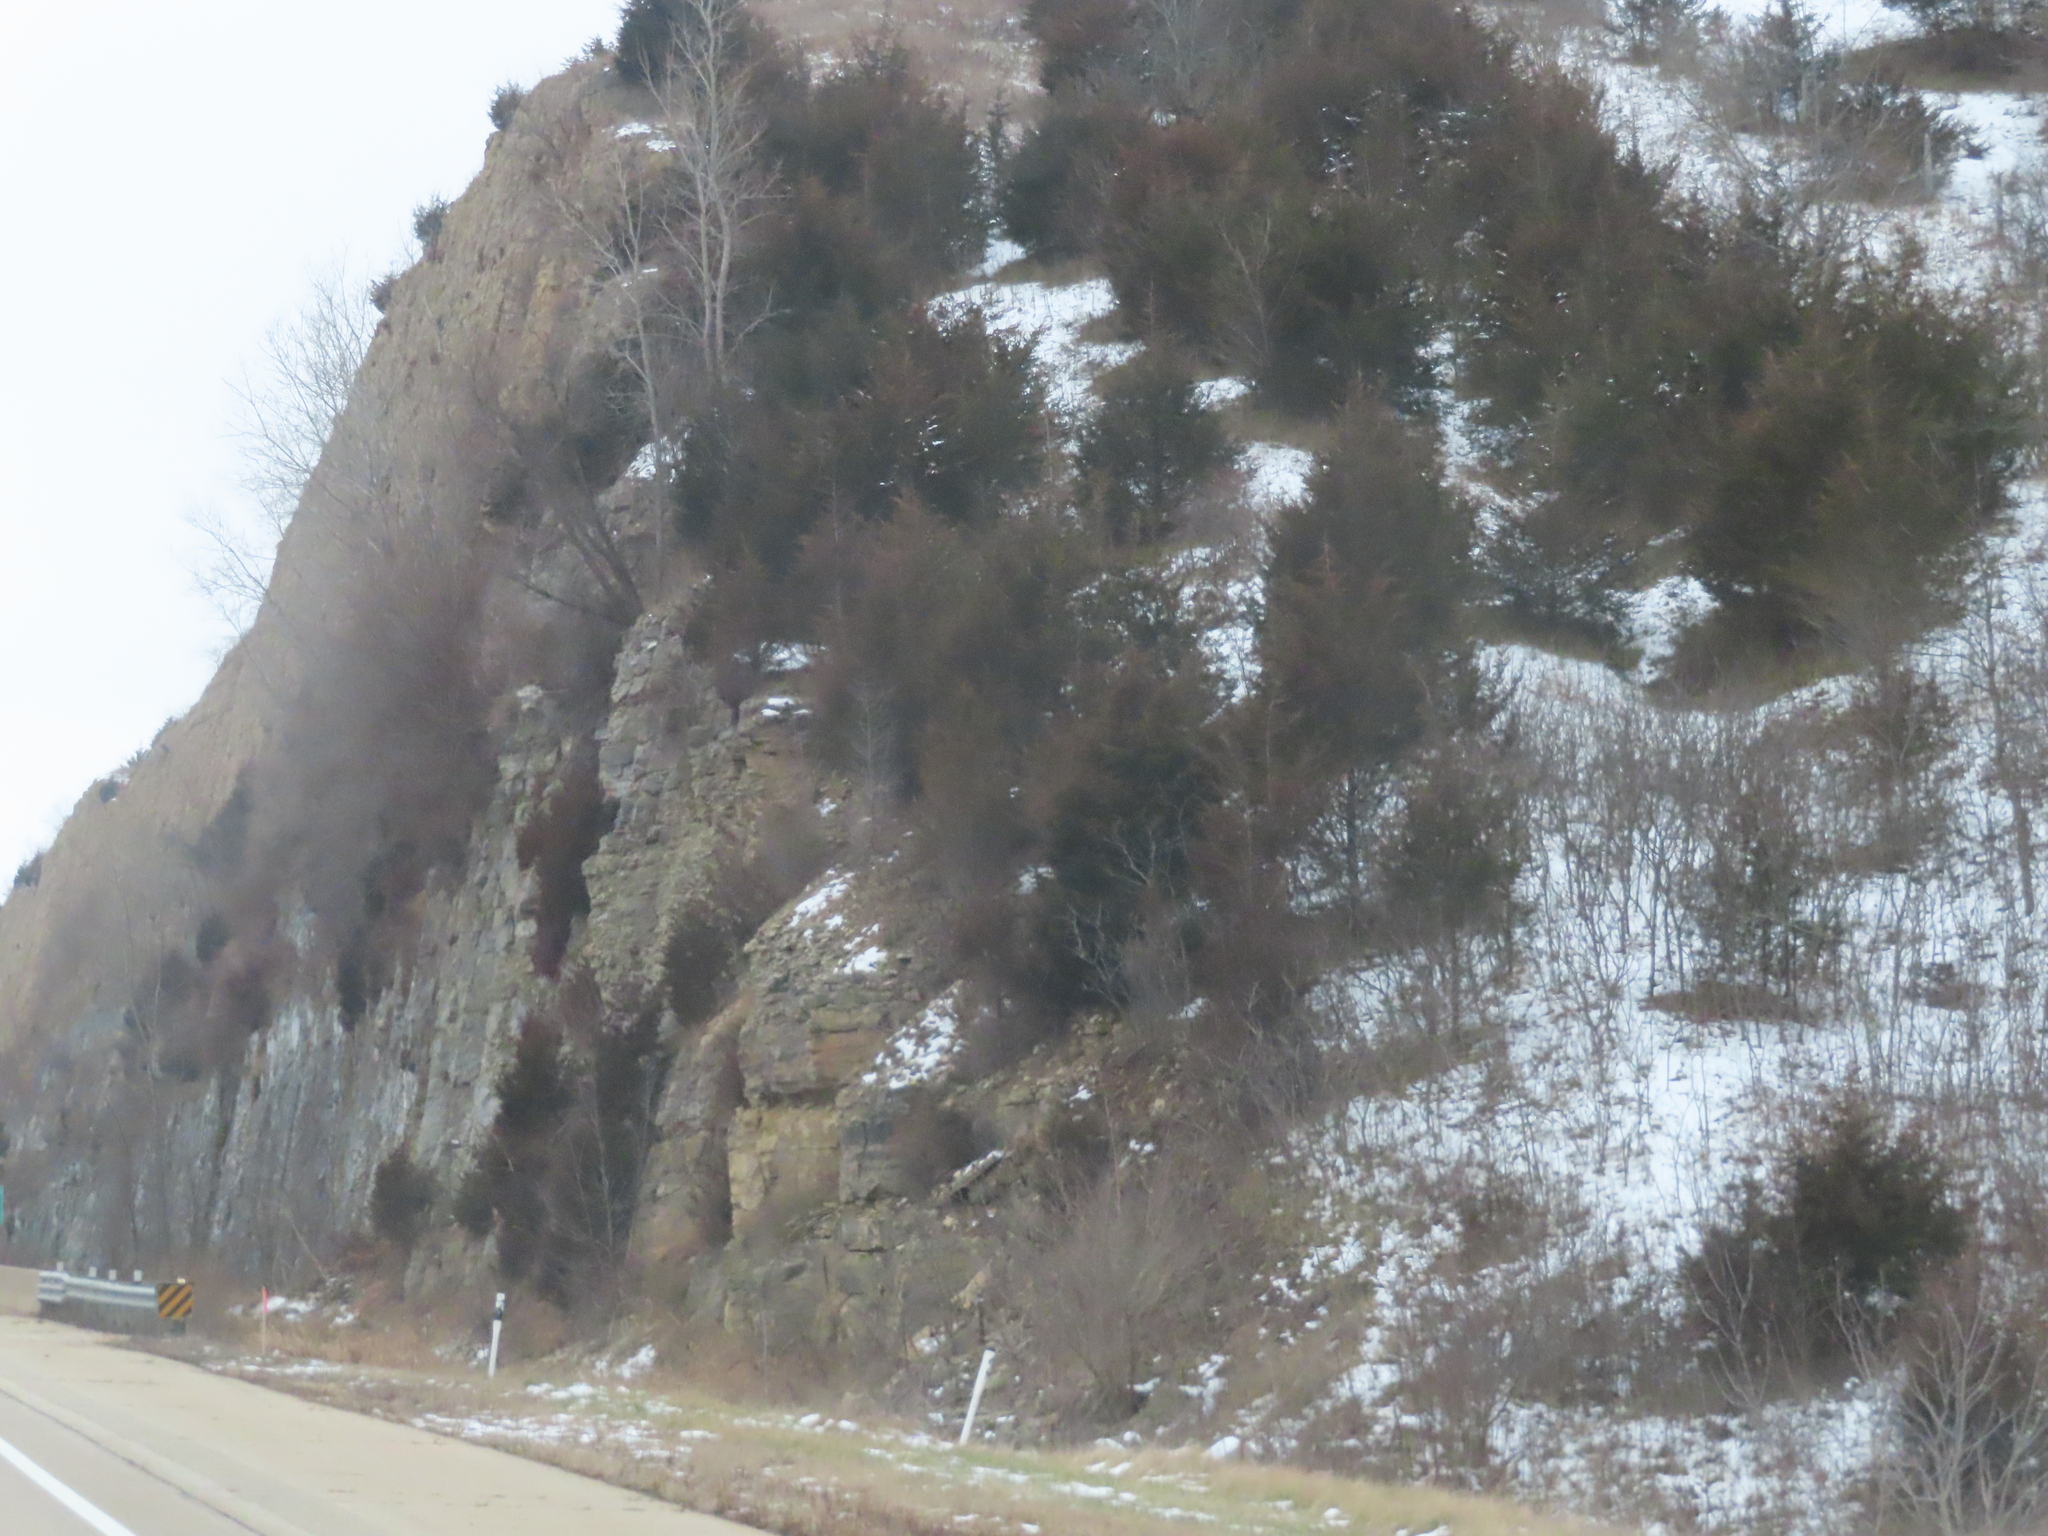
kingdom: Plantae
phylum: Tracheophyta
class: Pinopsida
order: Pinales
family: Cupressaceae
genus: Juniperus
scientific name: Juniperus virginiana
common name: Red juniper
